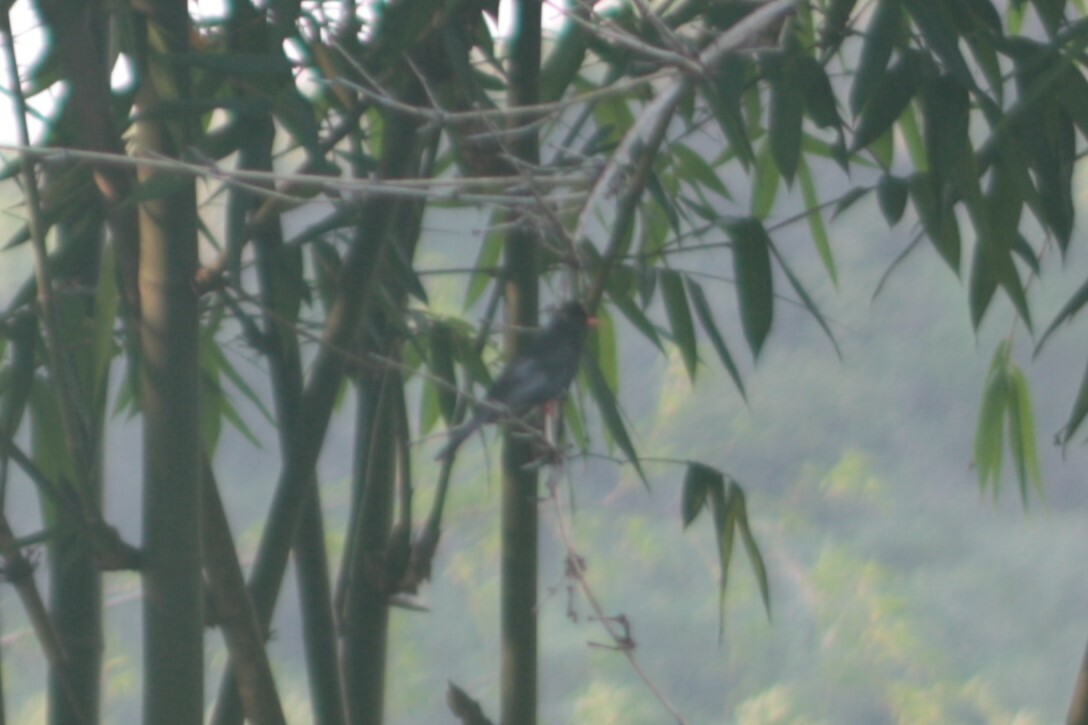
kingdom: Animalia
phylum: Chordata
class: Aves
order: Passeriformes
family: Pycnonotidae
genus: Hypsipetes
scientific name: Hypsipetes leucocephalus
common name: Black bulbul
